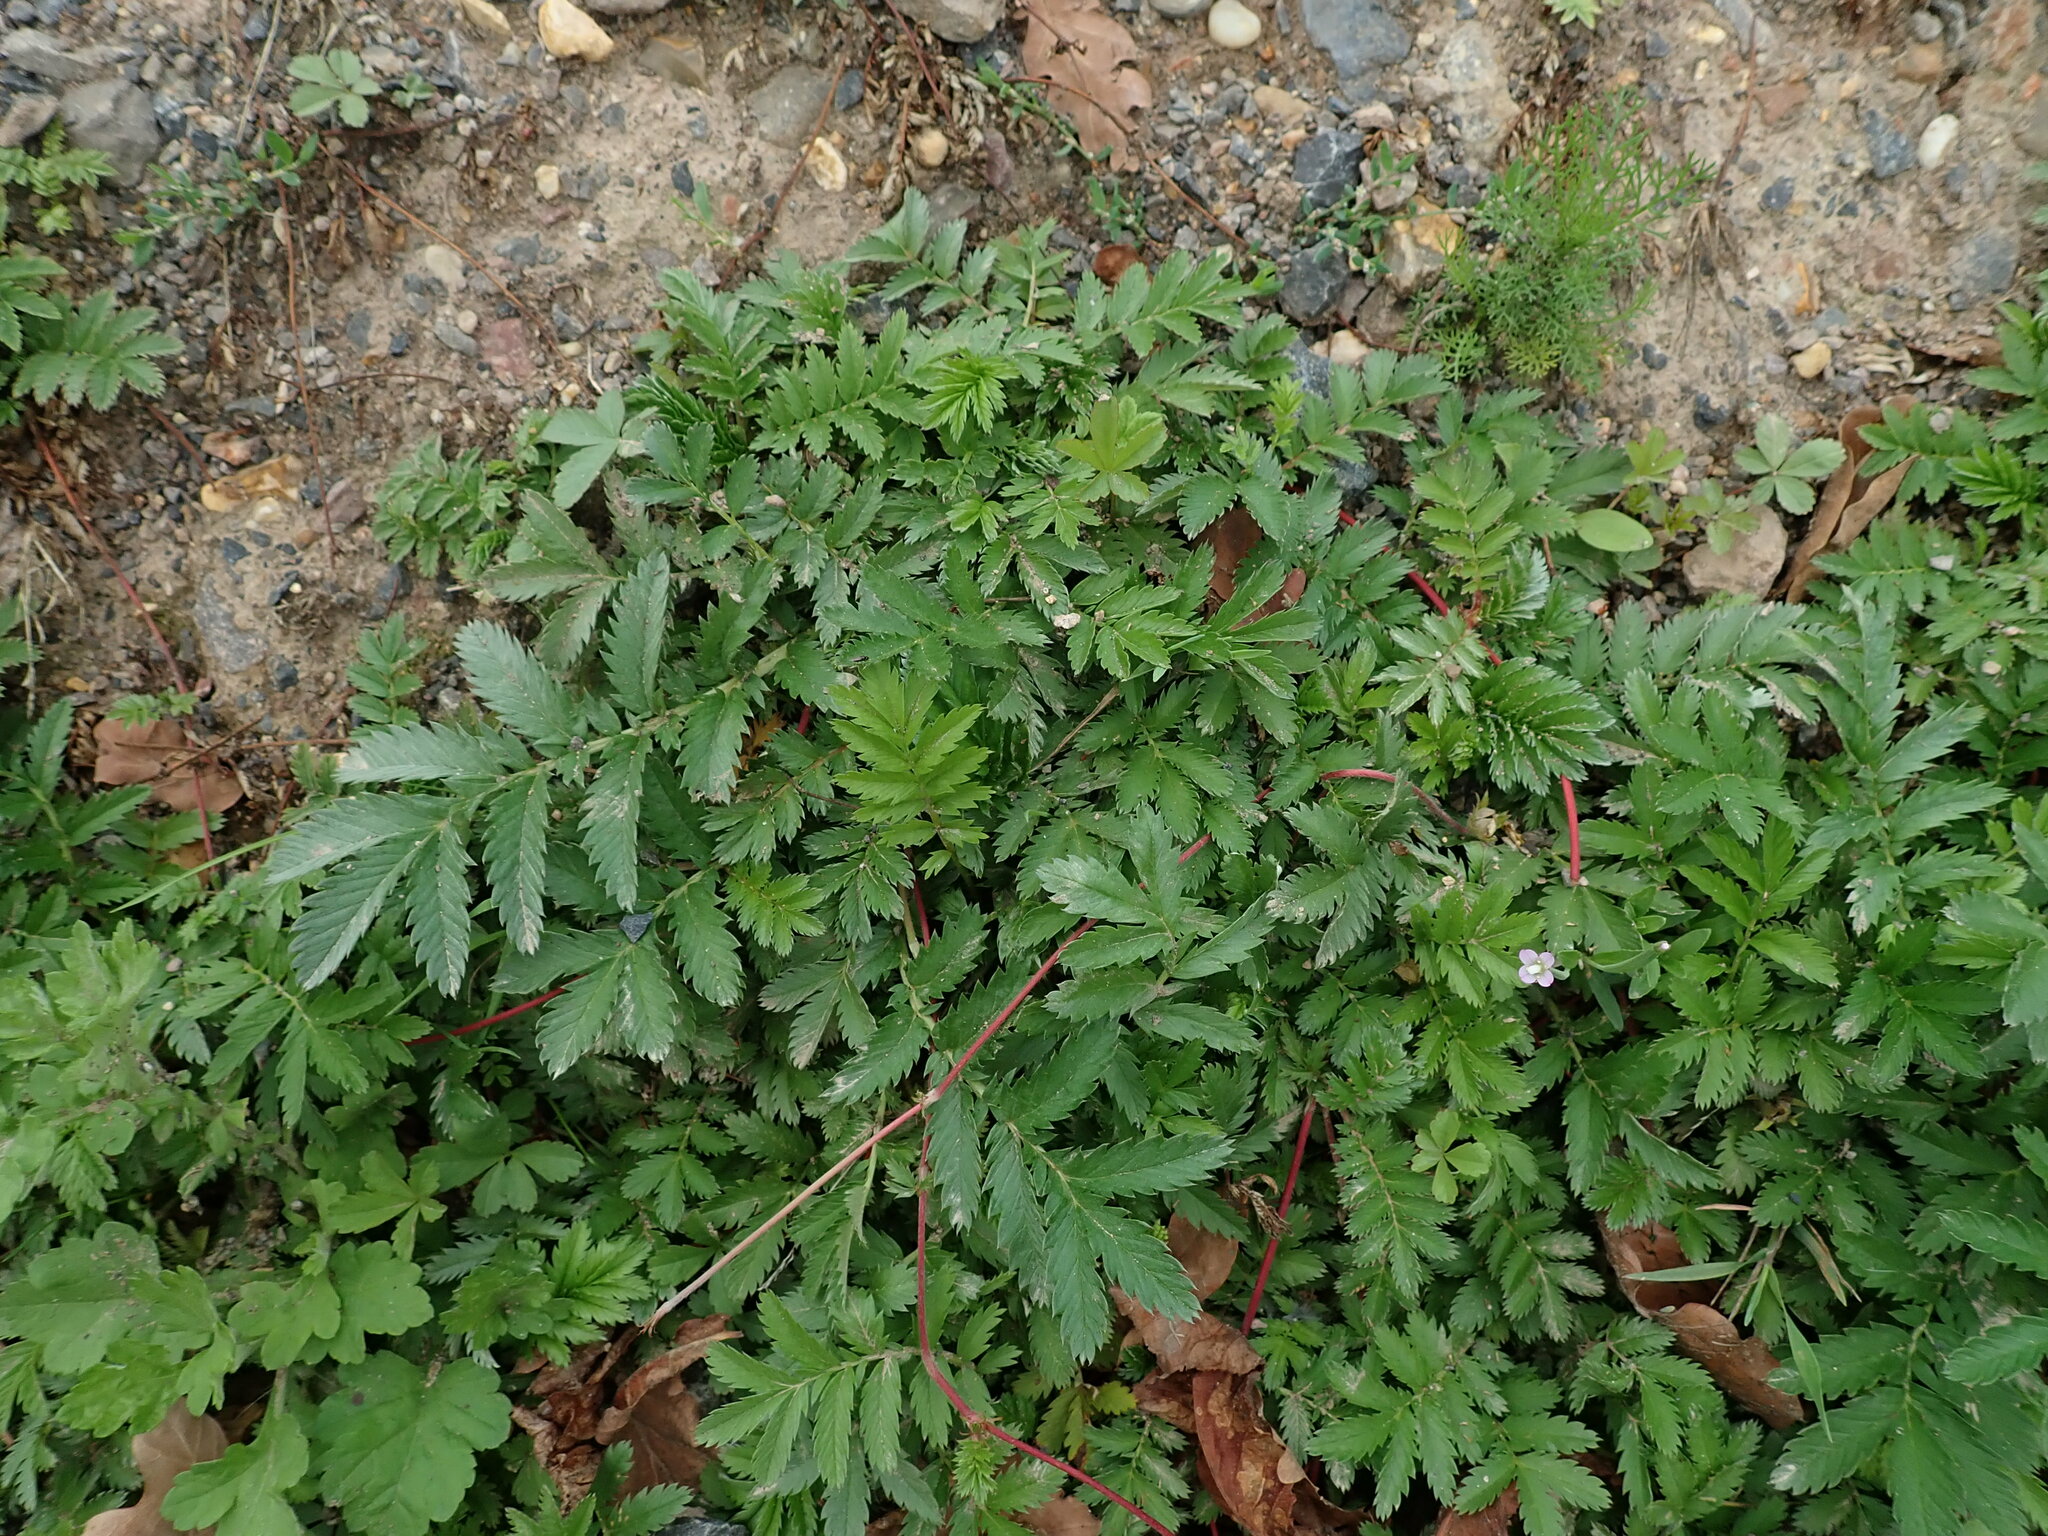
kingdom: Plantae
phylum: Tracheophyta
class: Magnoliopsida
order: Rosales
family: Rosaceae
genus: Argentina
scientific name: Argentina anserina
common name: Common silverweed
